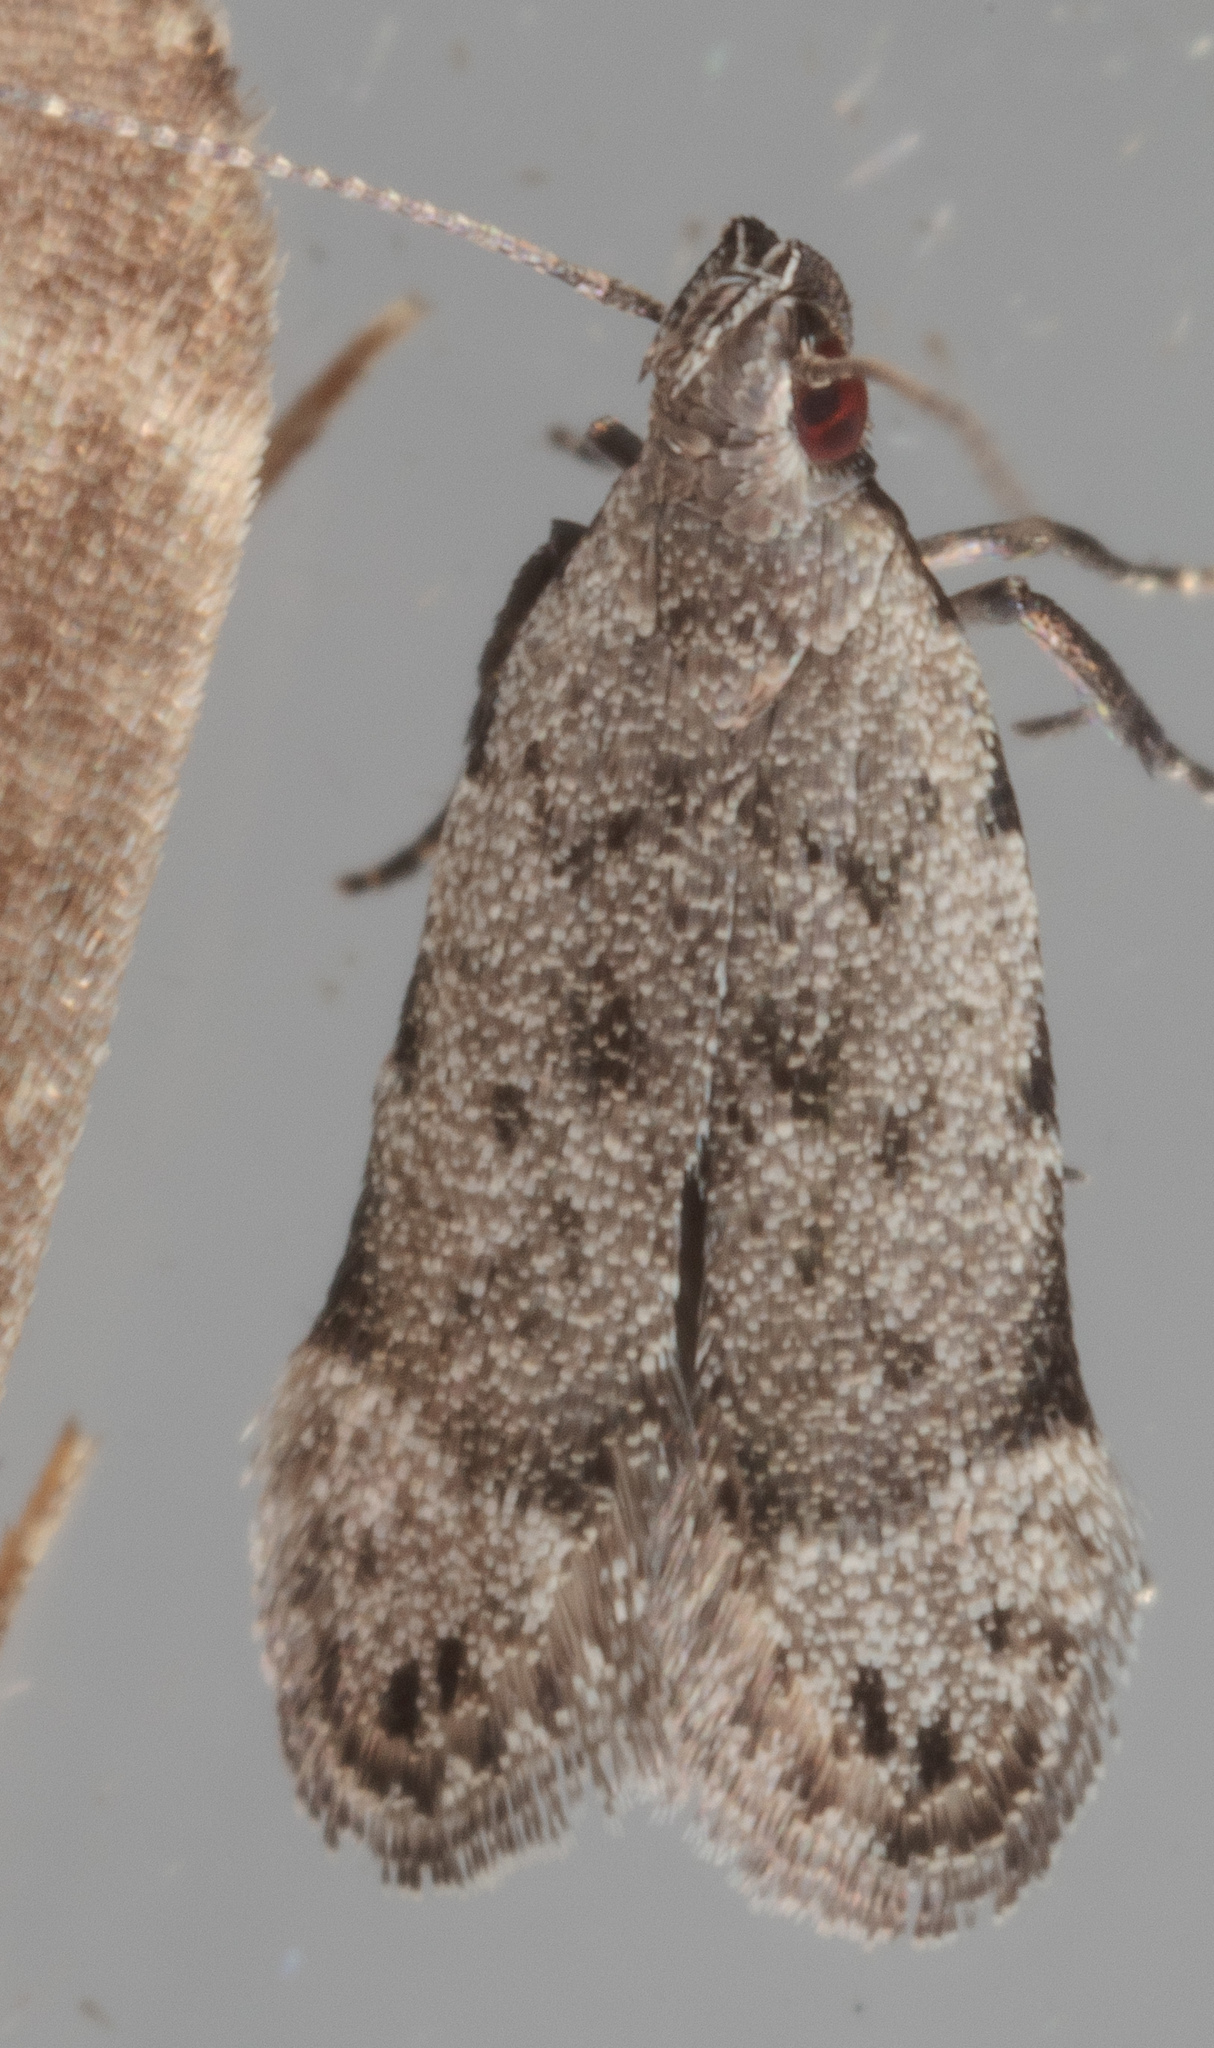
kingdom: Animalia
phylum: Arthropoda
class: Insecta
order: Lepidoptera
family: Gelechiidae
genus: Anacampsis
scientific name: Anacampsis conclusella
